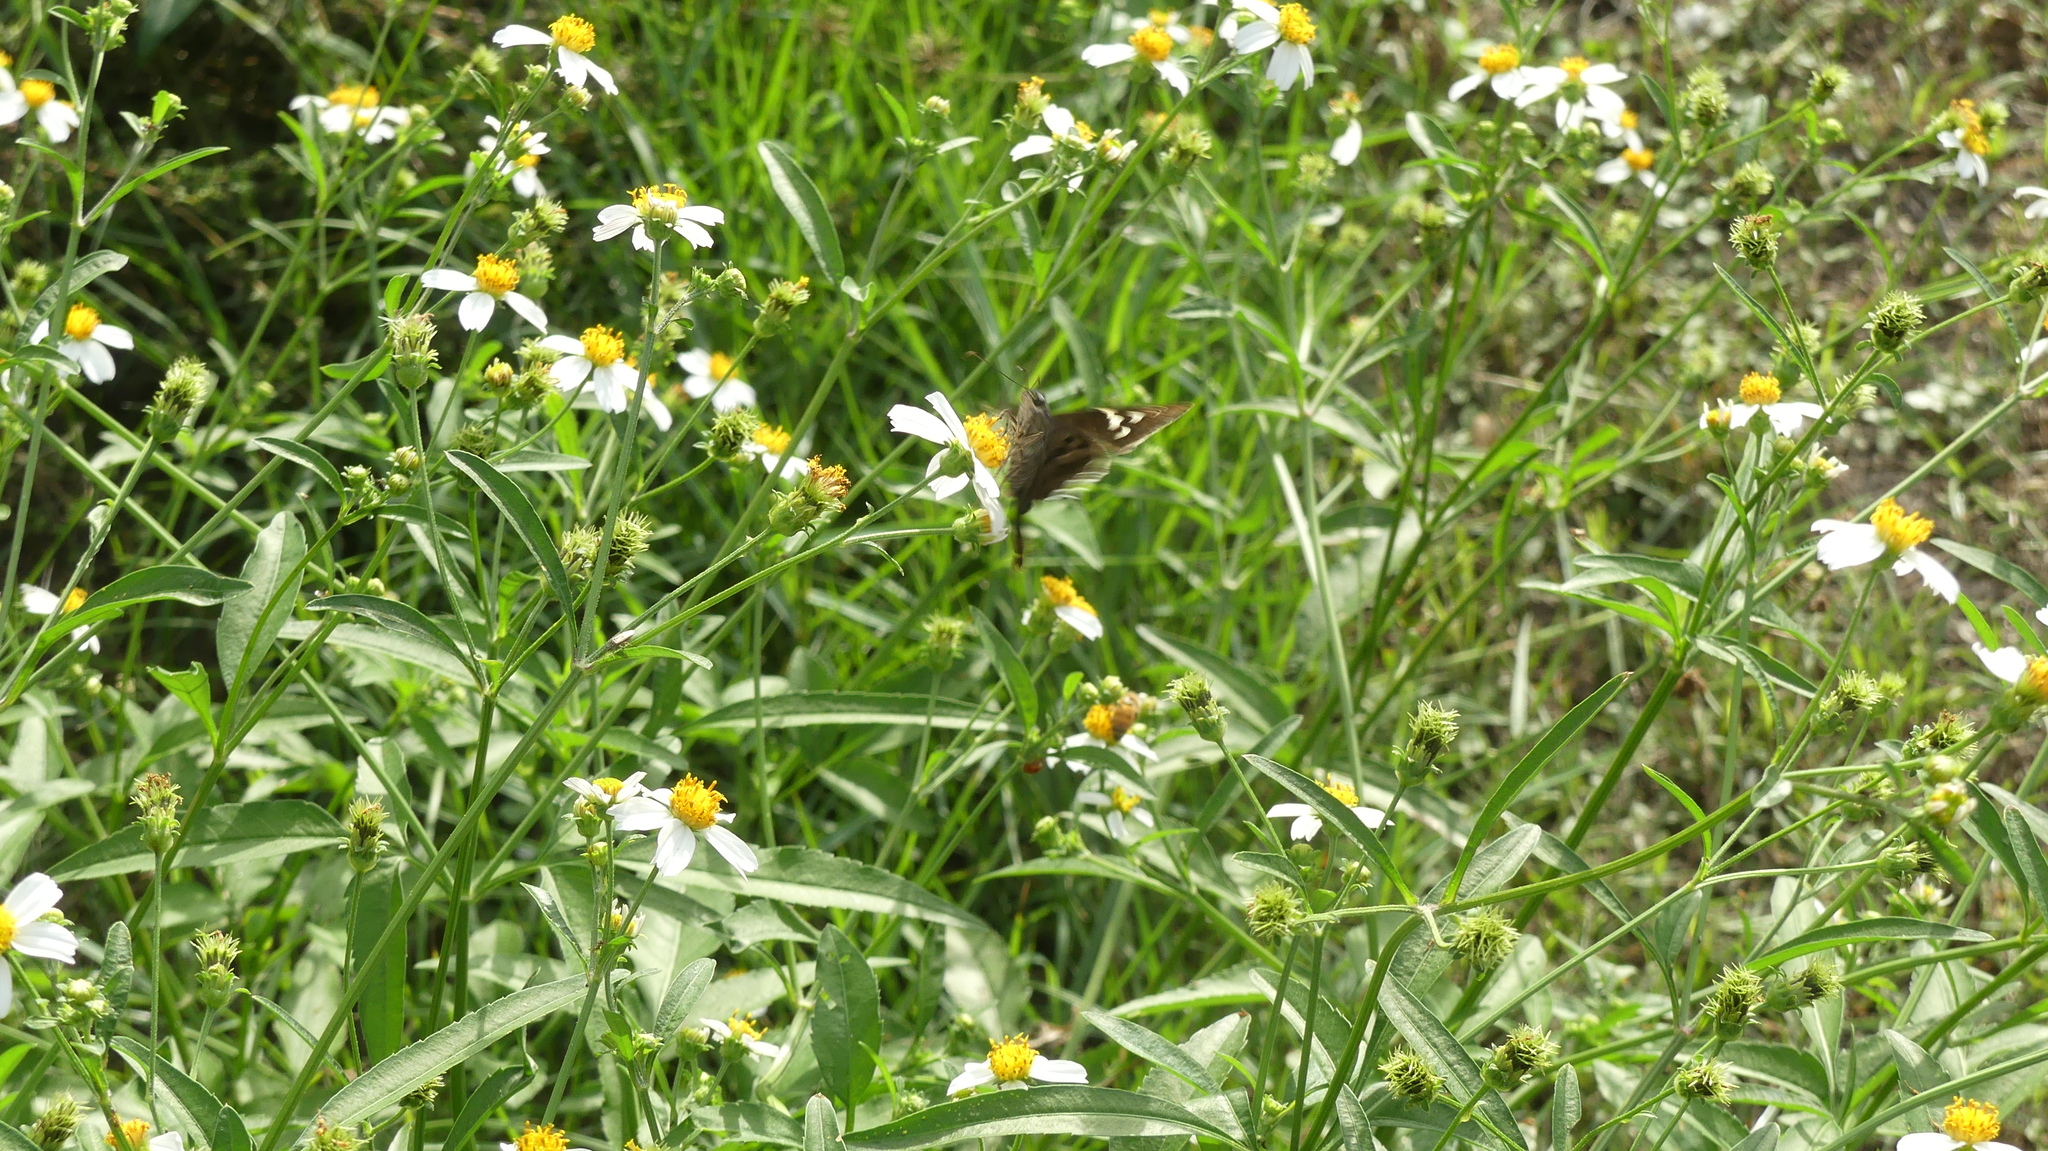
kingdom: Animalia
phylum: Arthropoda
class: Insecta
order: Lepidoptera
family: Hesperiidae
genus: Urbanus
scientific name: Urbanus proteus
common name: Long-tailed skipper
